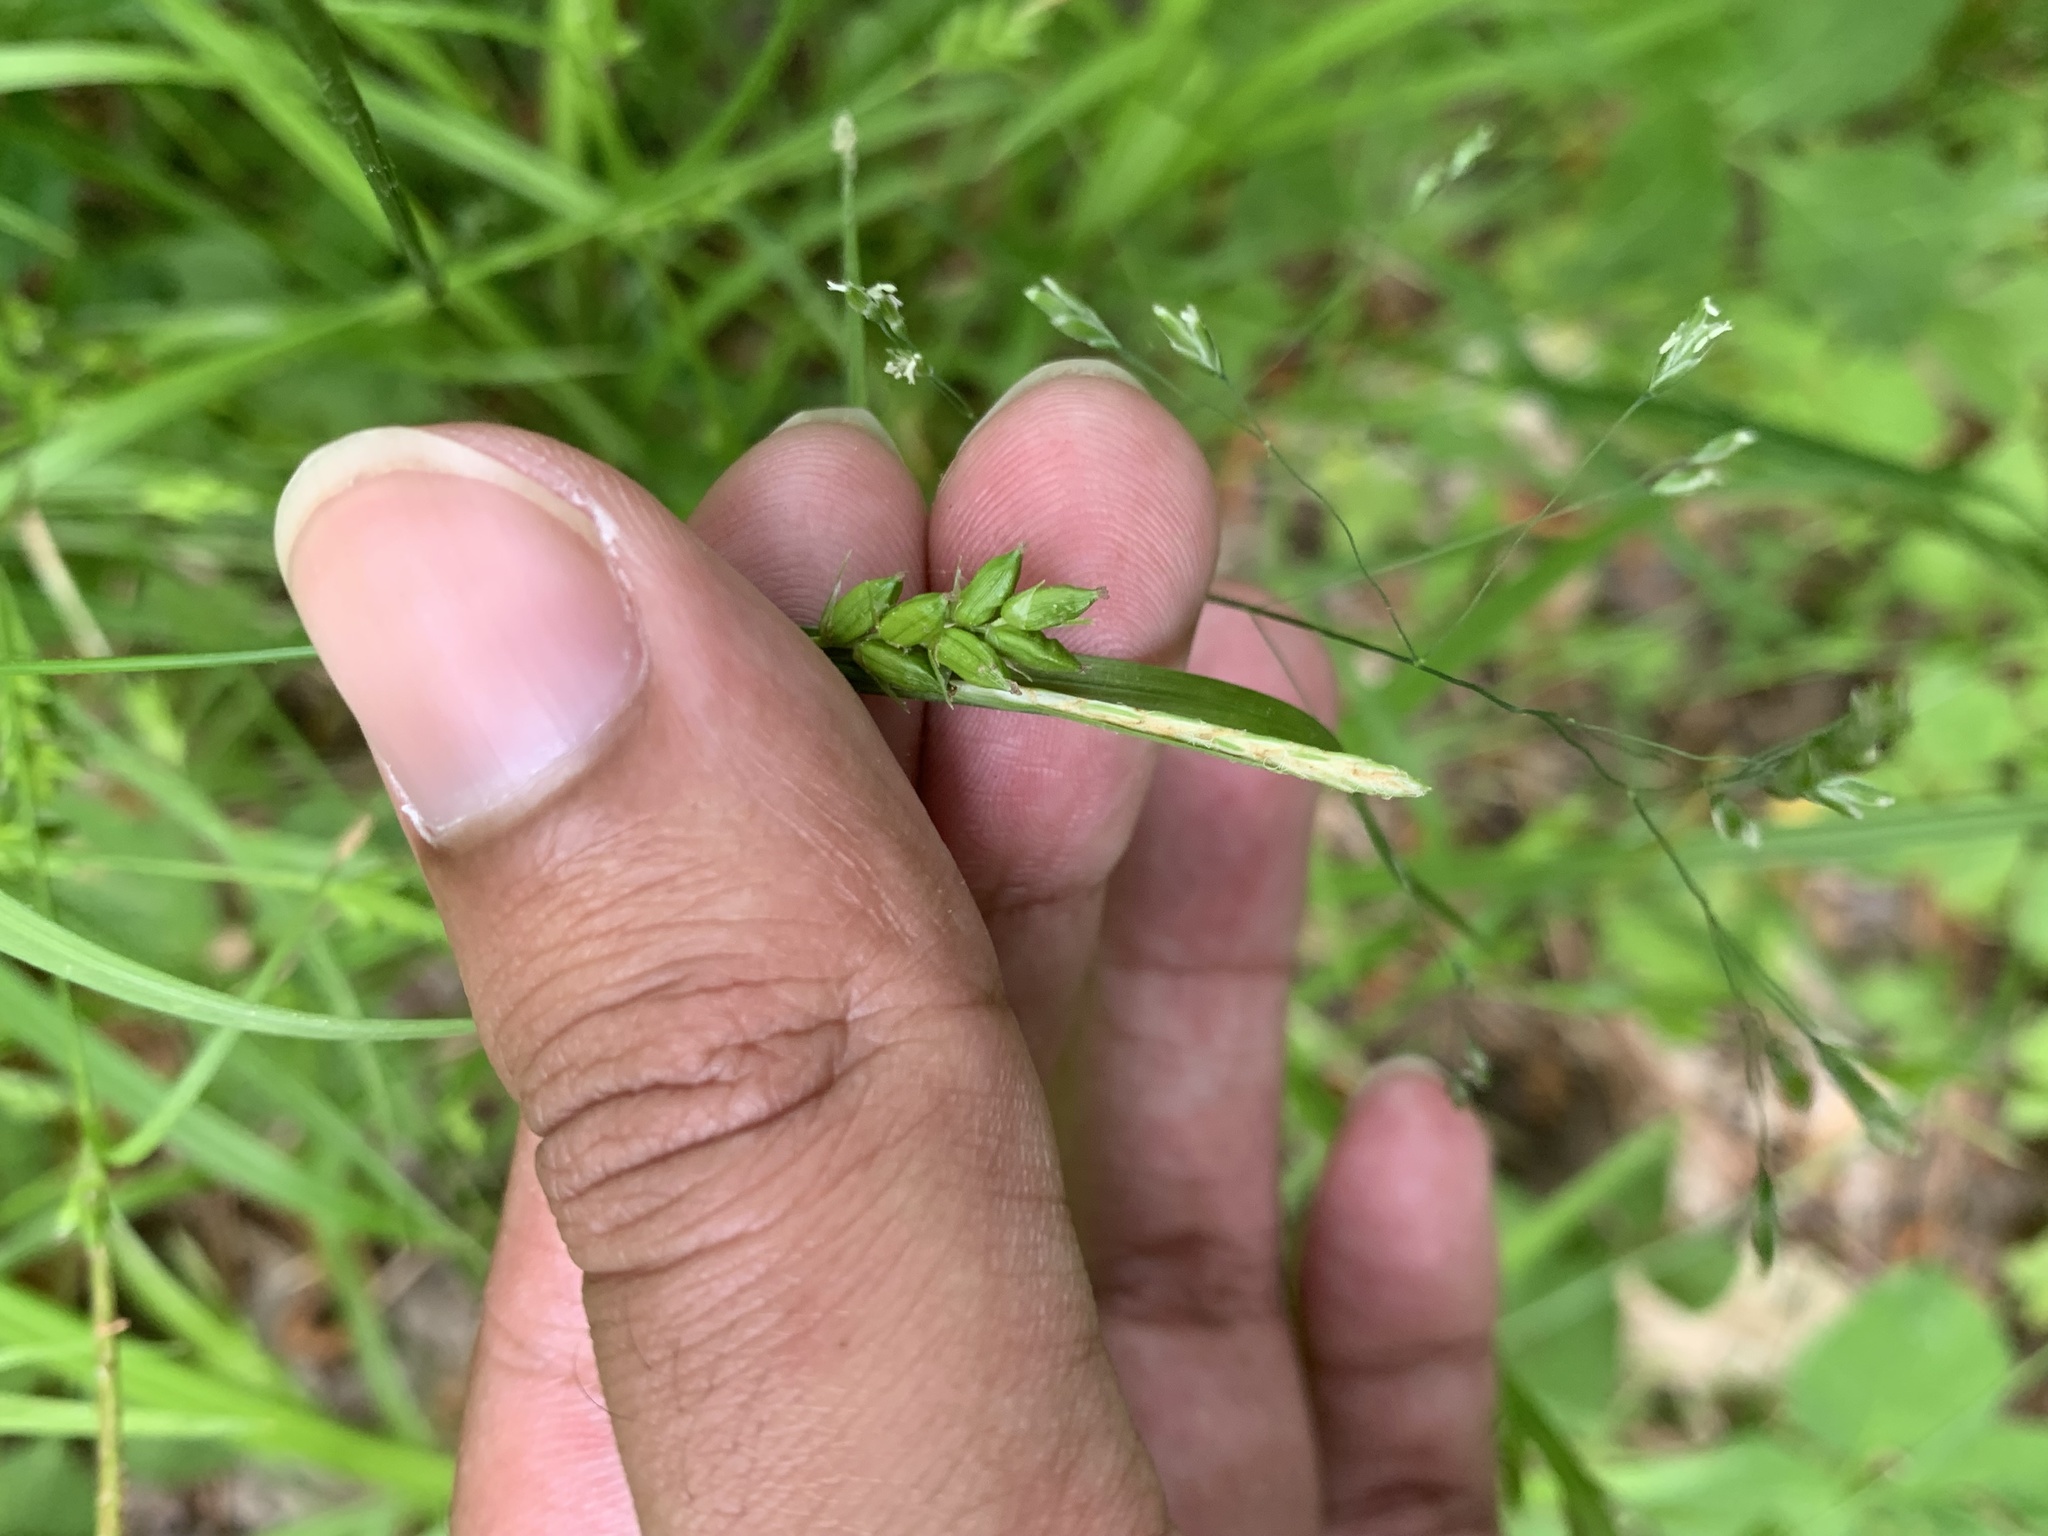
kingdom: Plantae
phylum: Tracheophyta
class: Liliopsida
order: Poales
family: Cyperaceae
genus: Carex
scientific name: Carex amphibola
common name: Amphibious sedge
